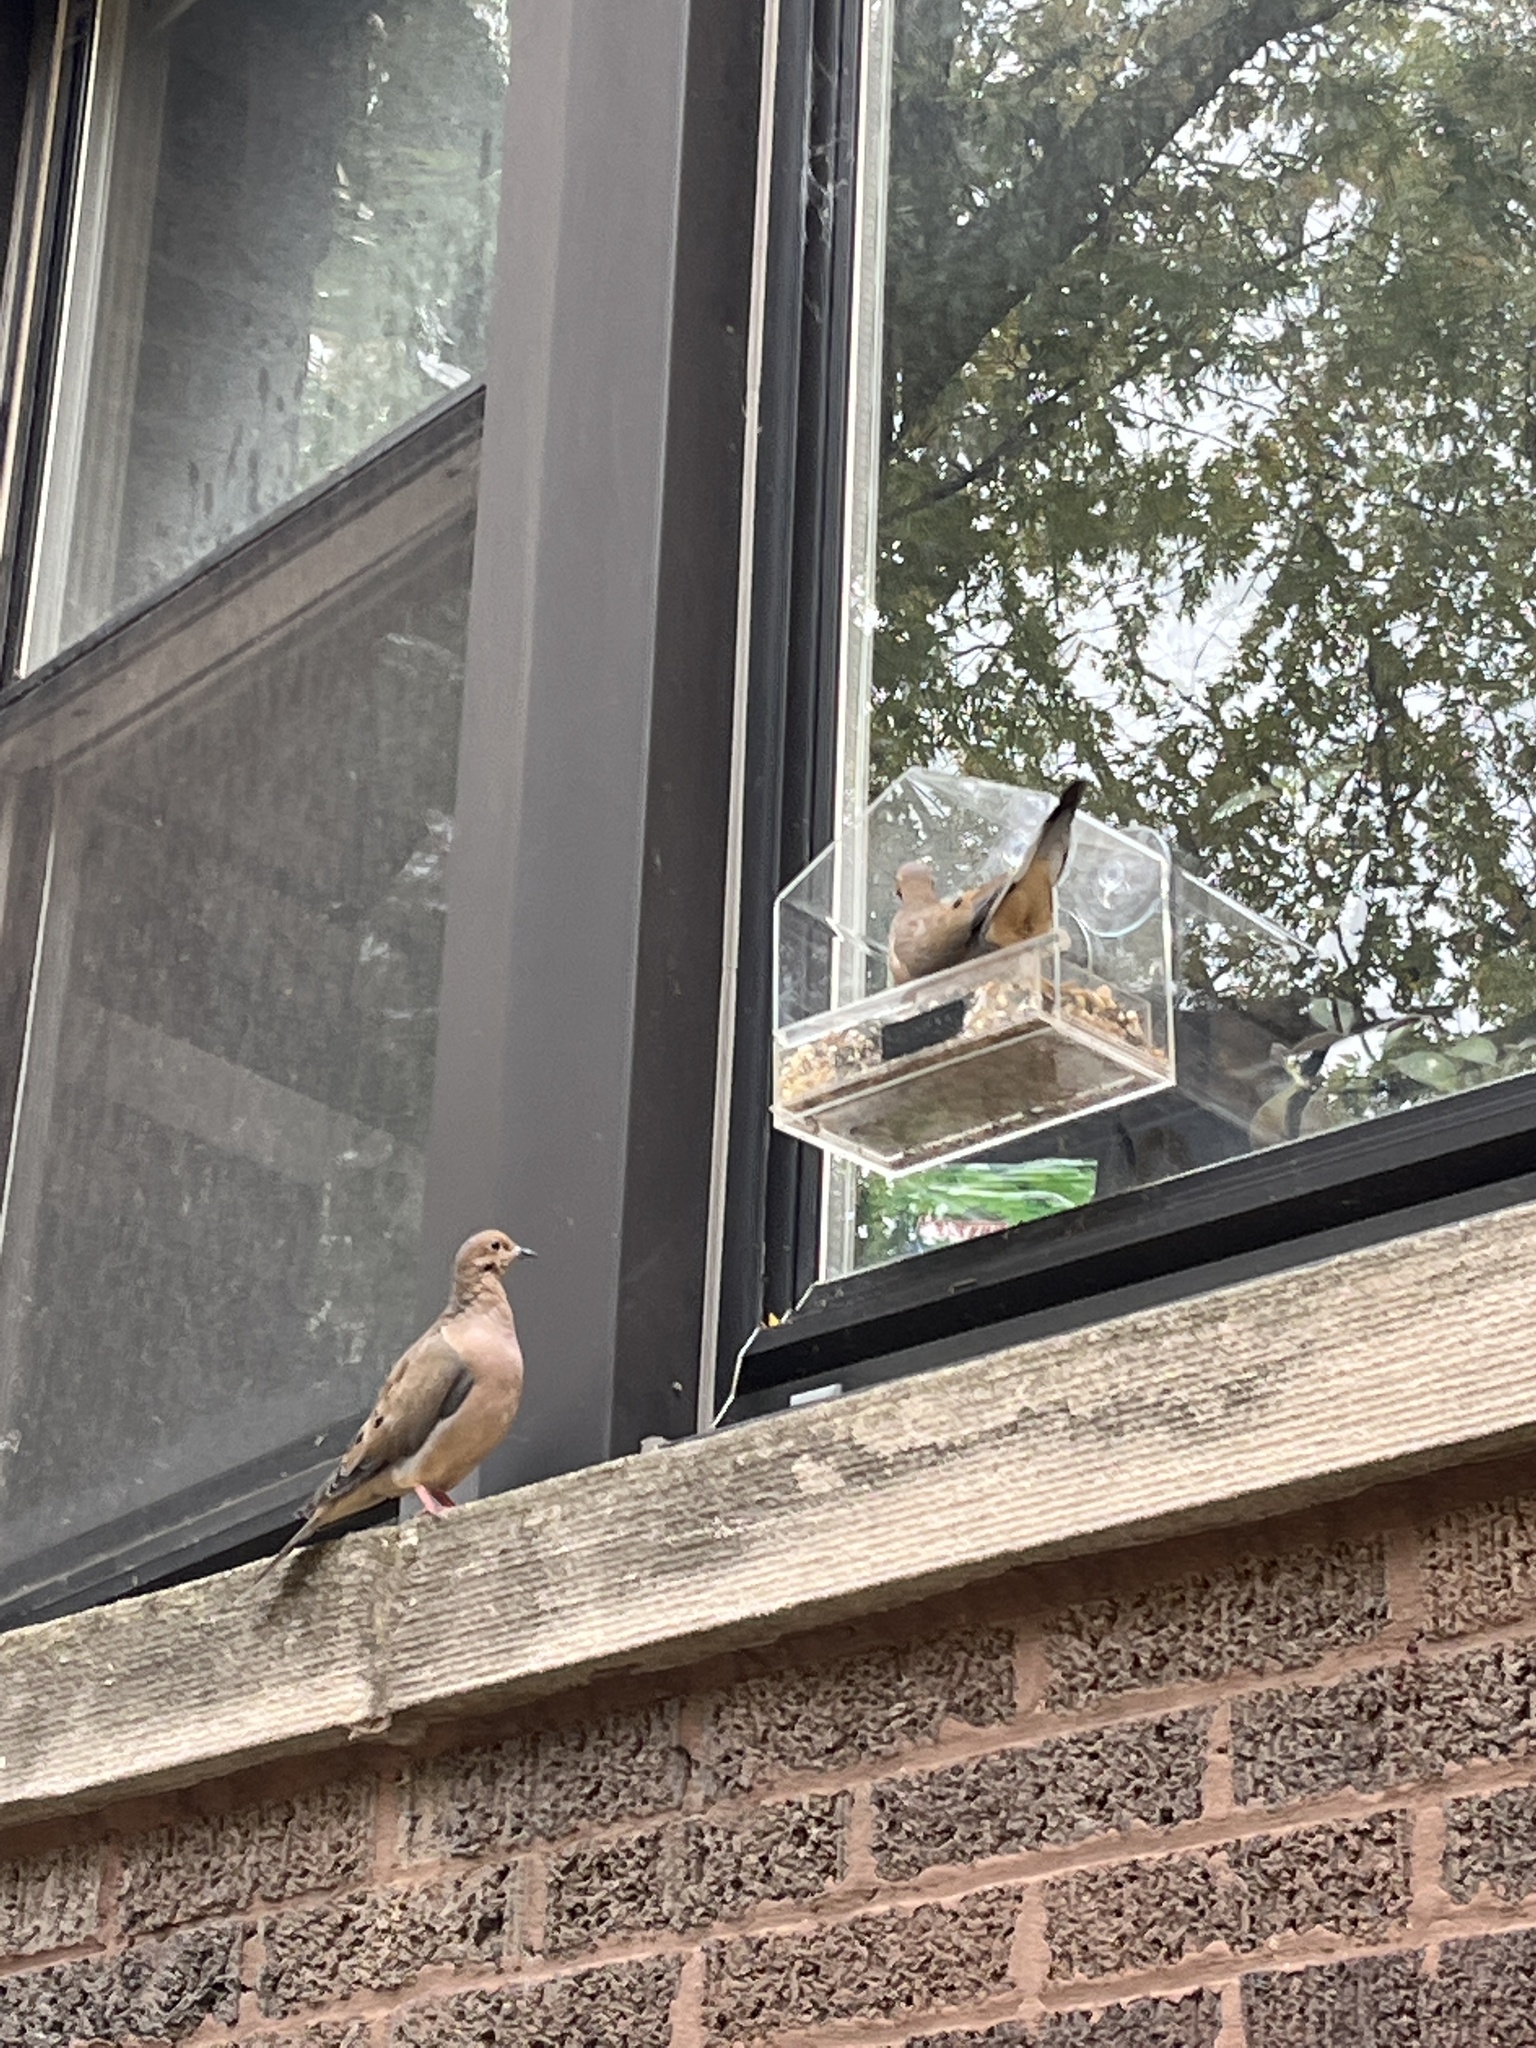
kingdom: Animalia
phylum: Chordata
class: Aves
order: Columbiformes
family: Columbidae
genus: Zenaida
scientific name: Zenaida macroura
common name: Mourning dove
